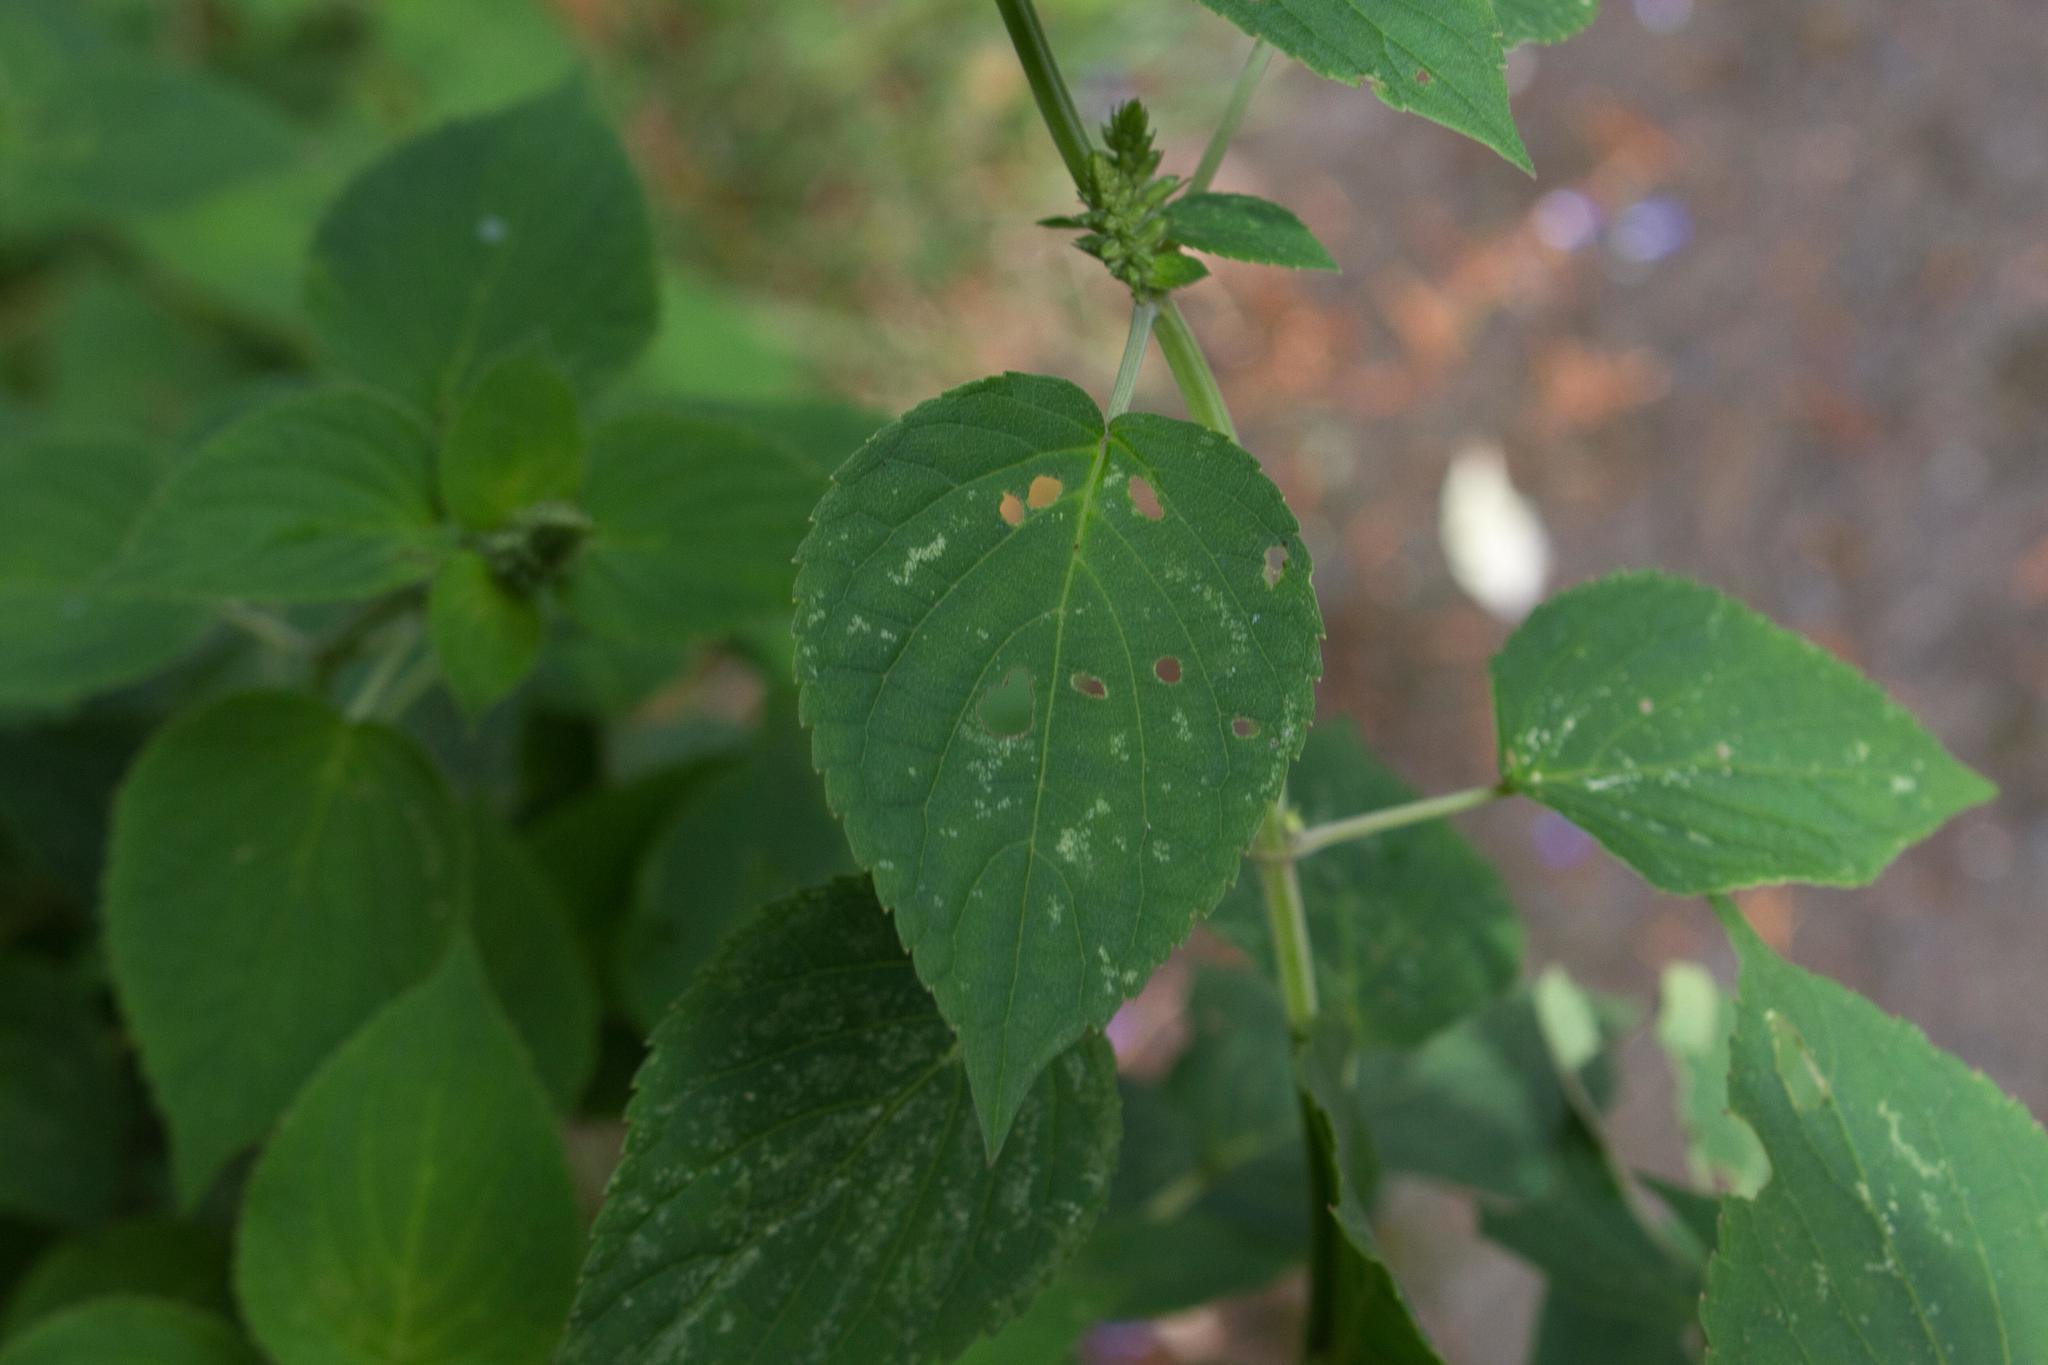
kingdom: Plantae
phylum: Tracheophyta
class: Magnoliopsida
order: Lamiales
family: Lamiaceae
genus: Salvia
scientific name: Salvia polystachia
